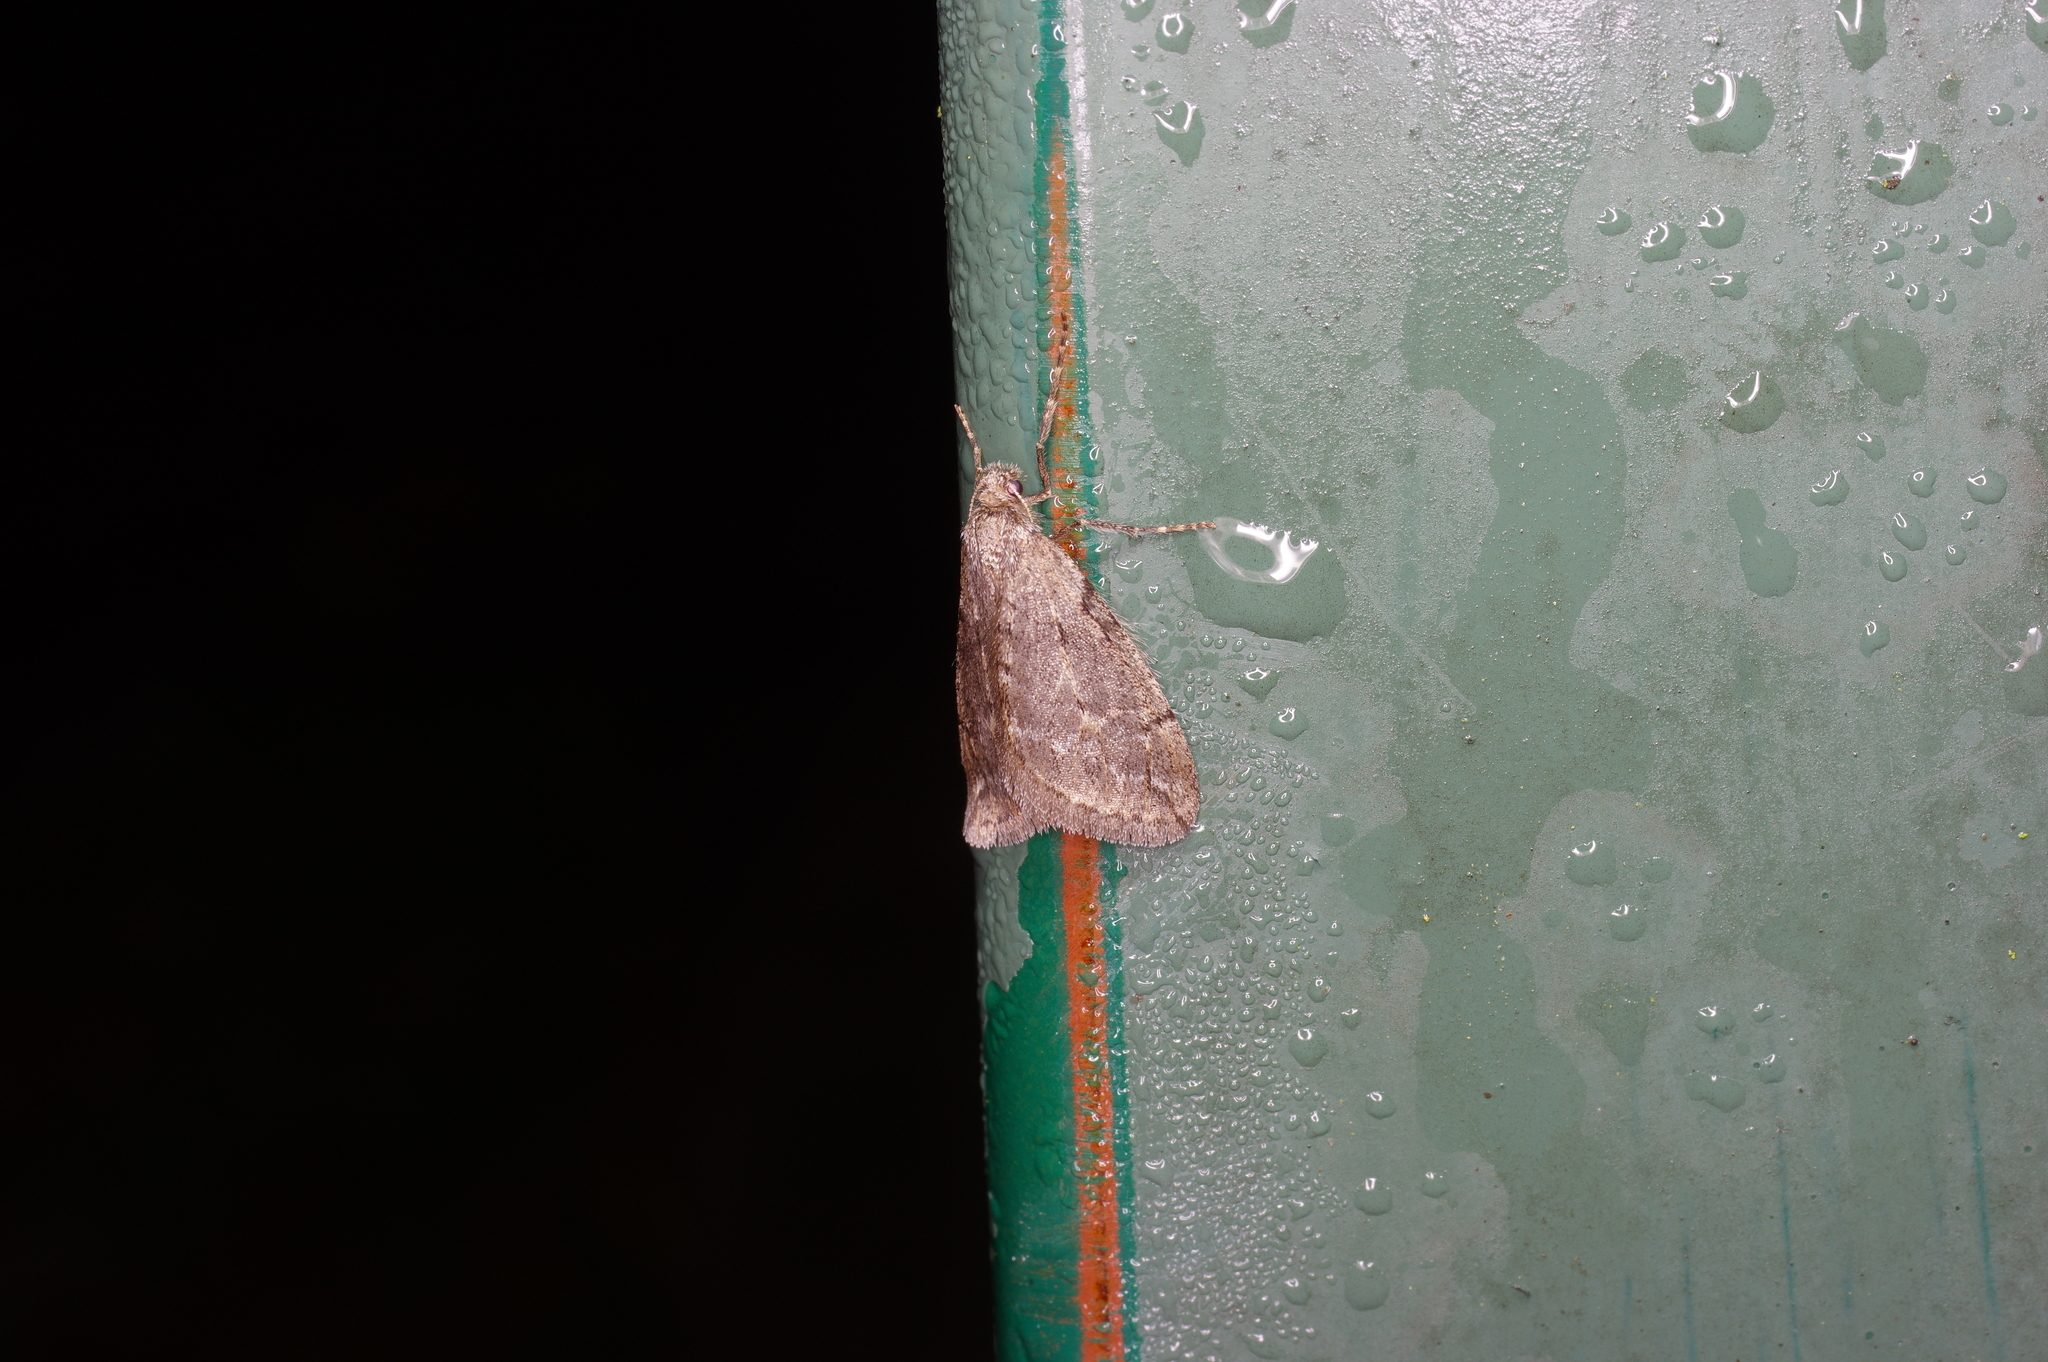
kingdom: Animalia
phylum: Arthropoda
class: Insecta
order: Lepidoptera
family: Geometridae
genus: Paleacrita
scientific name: Paleacrita vernata
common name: Spring cankerworm
